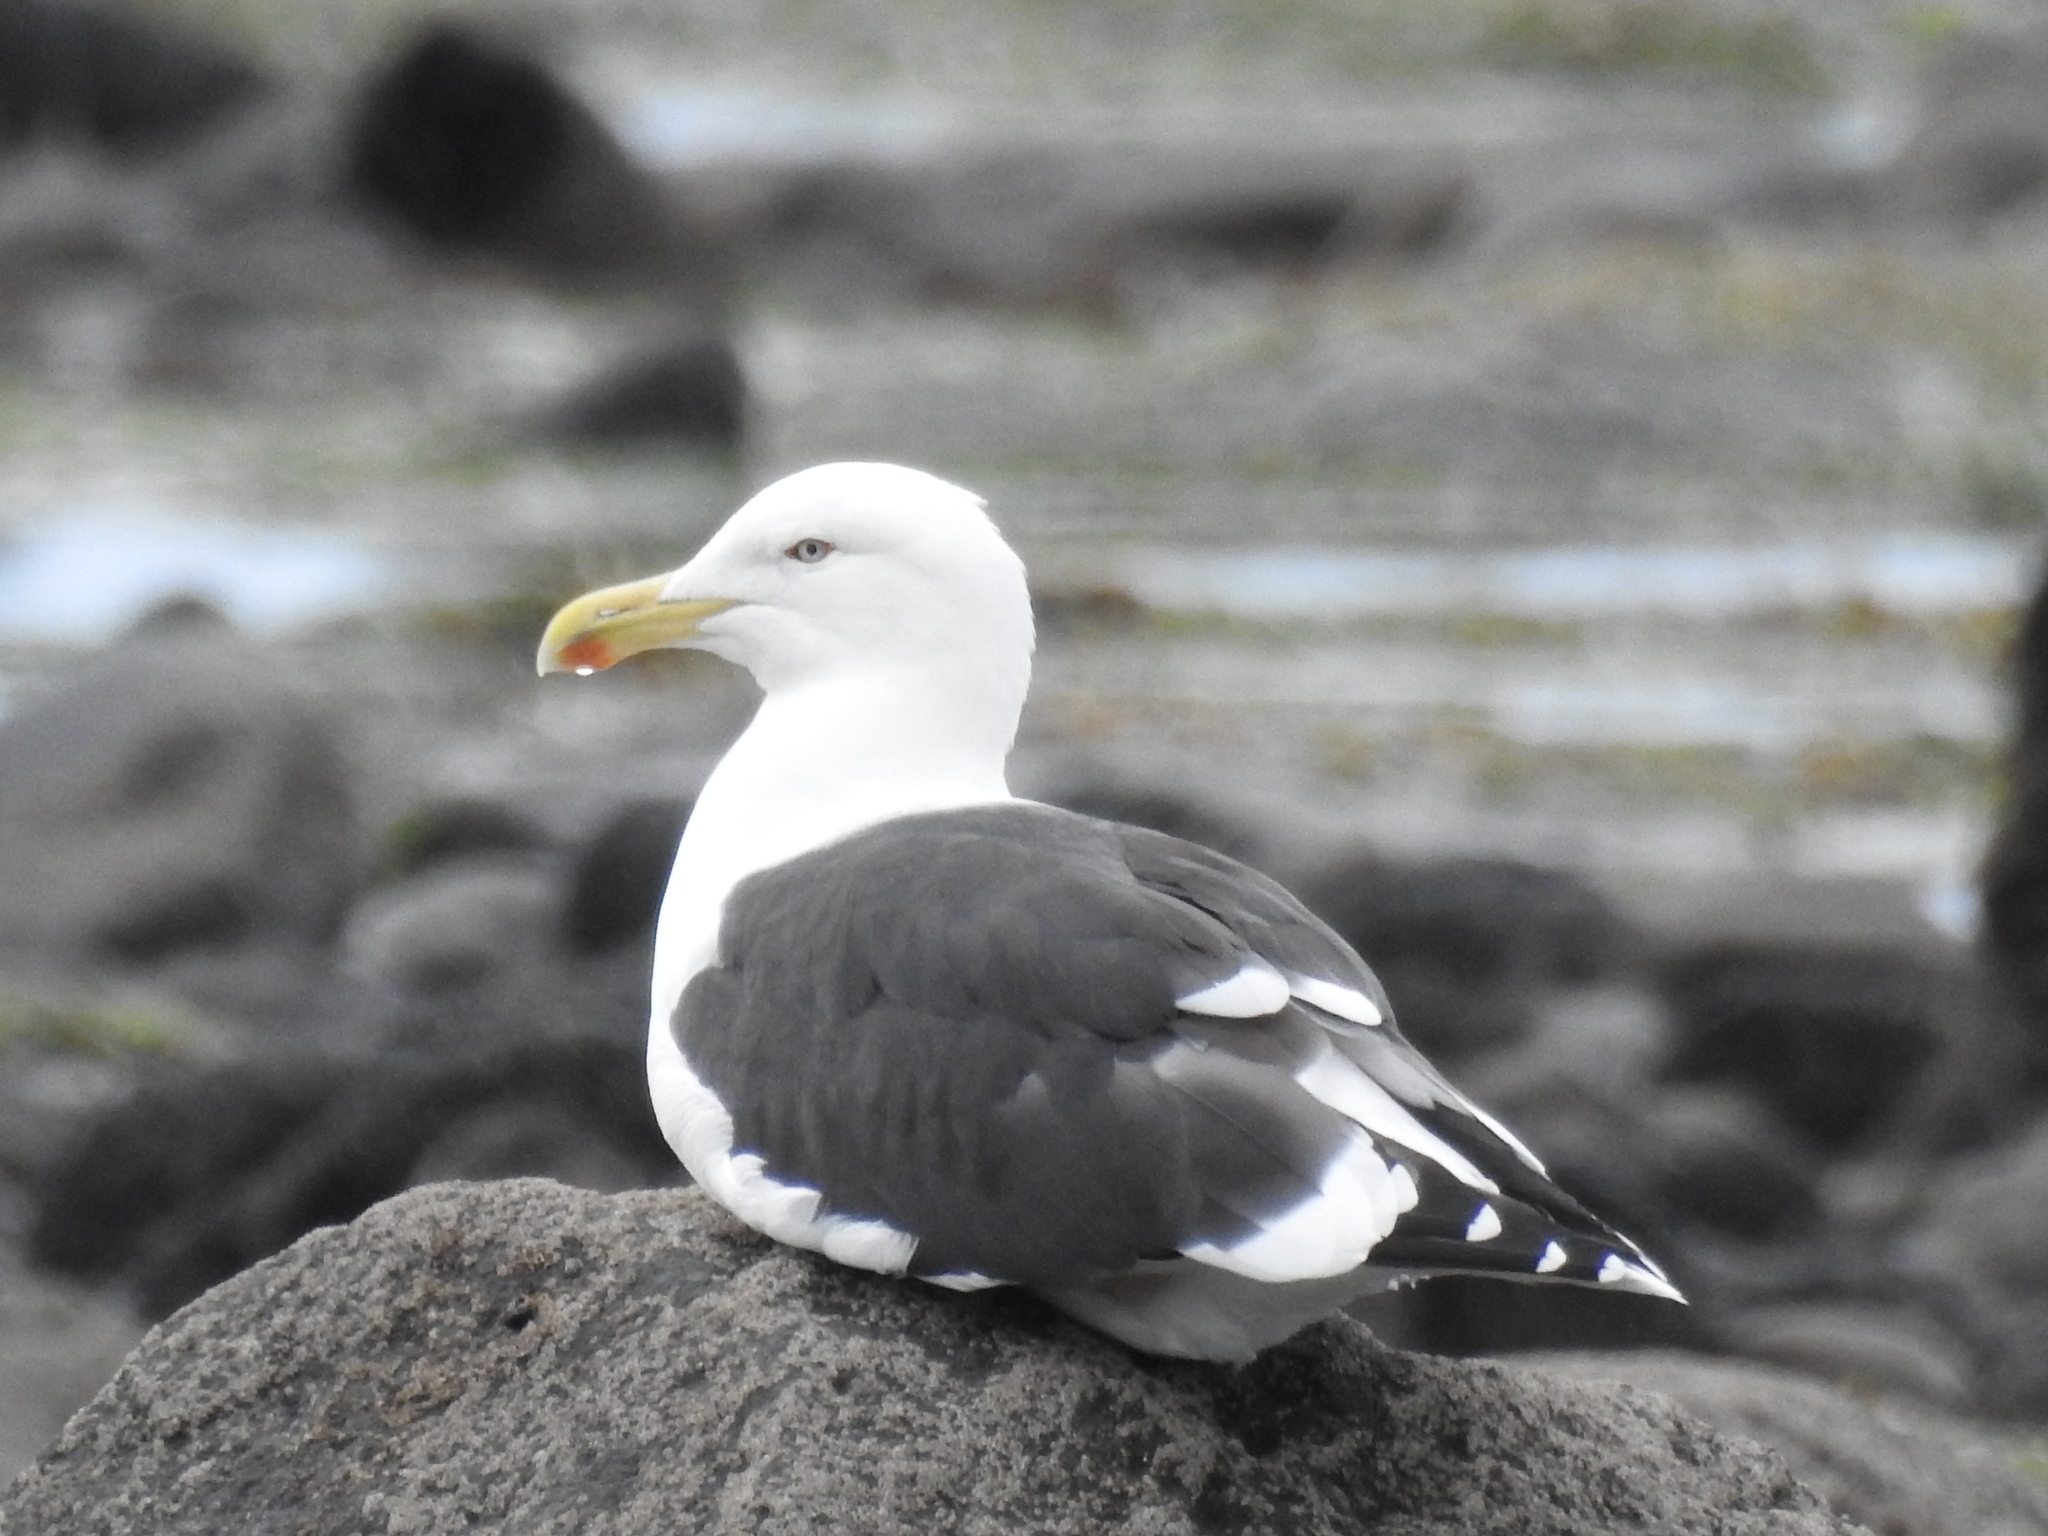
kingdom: Animalia
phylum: Chordata
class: Aves
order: Charadriiformes
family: Laridae
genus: Larus
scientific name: Larus dominicanus
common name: Kelp gull
